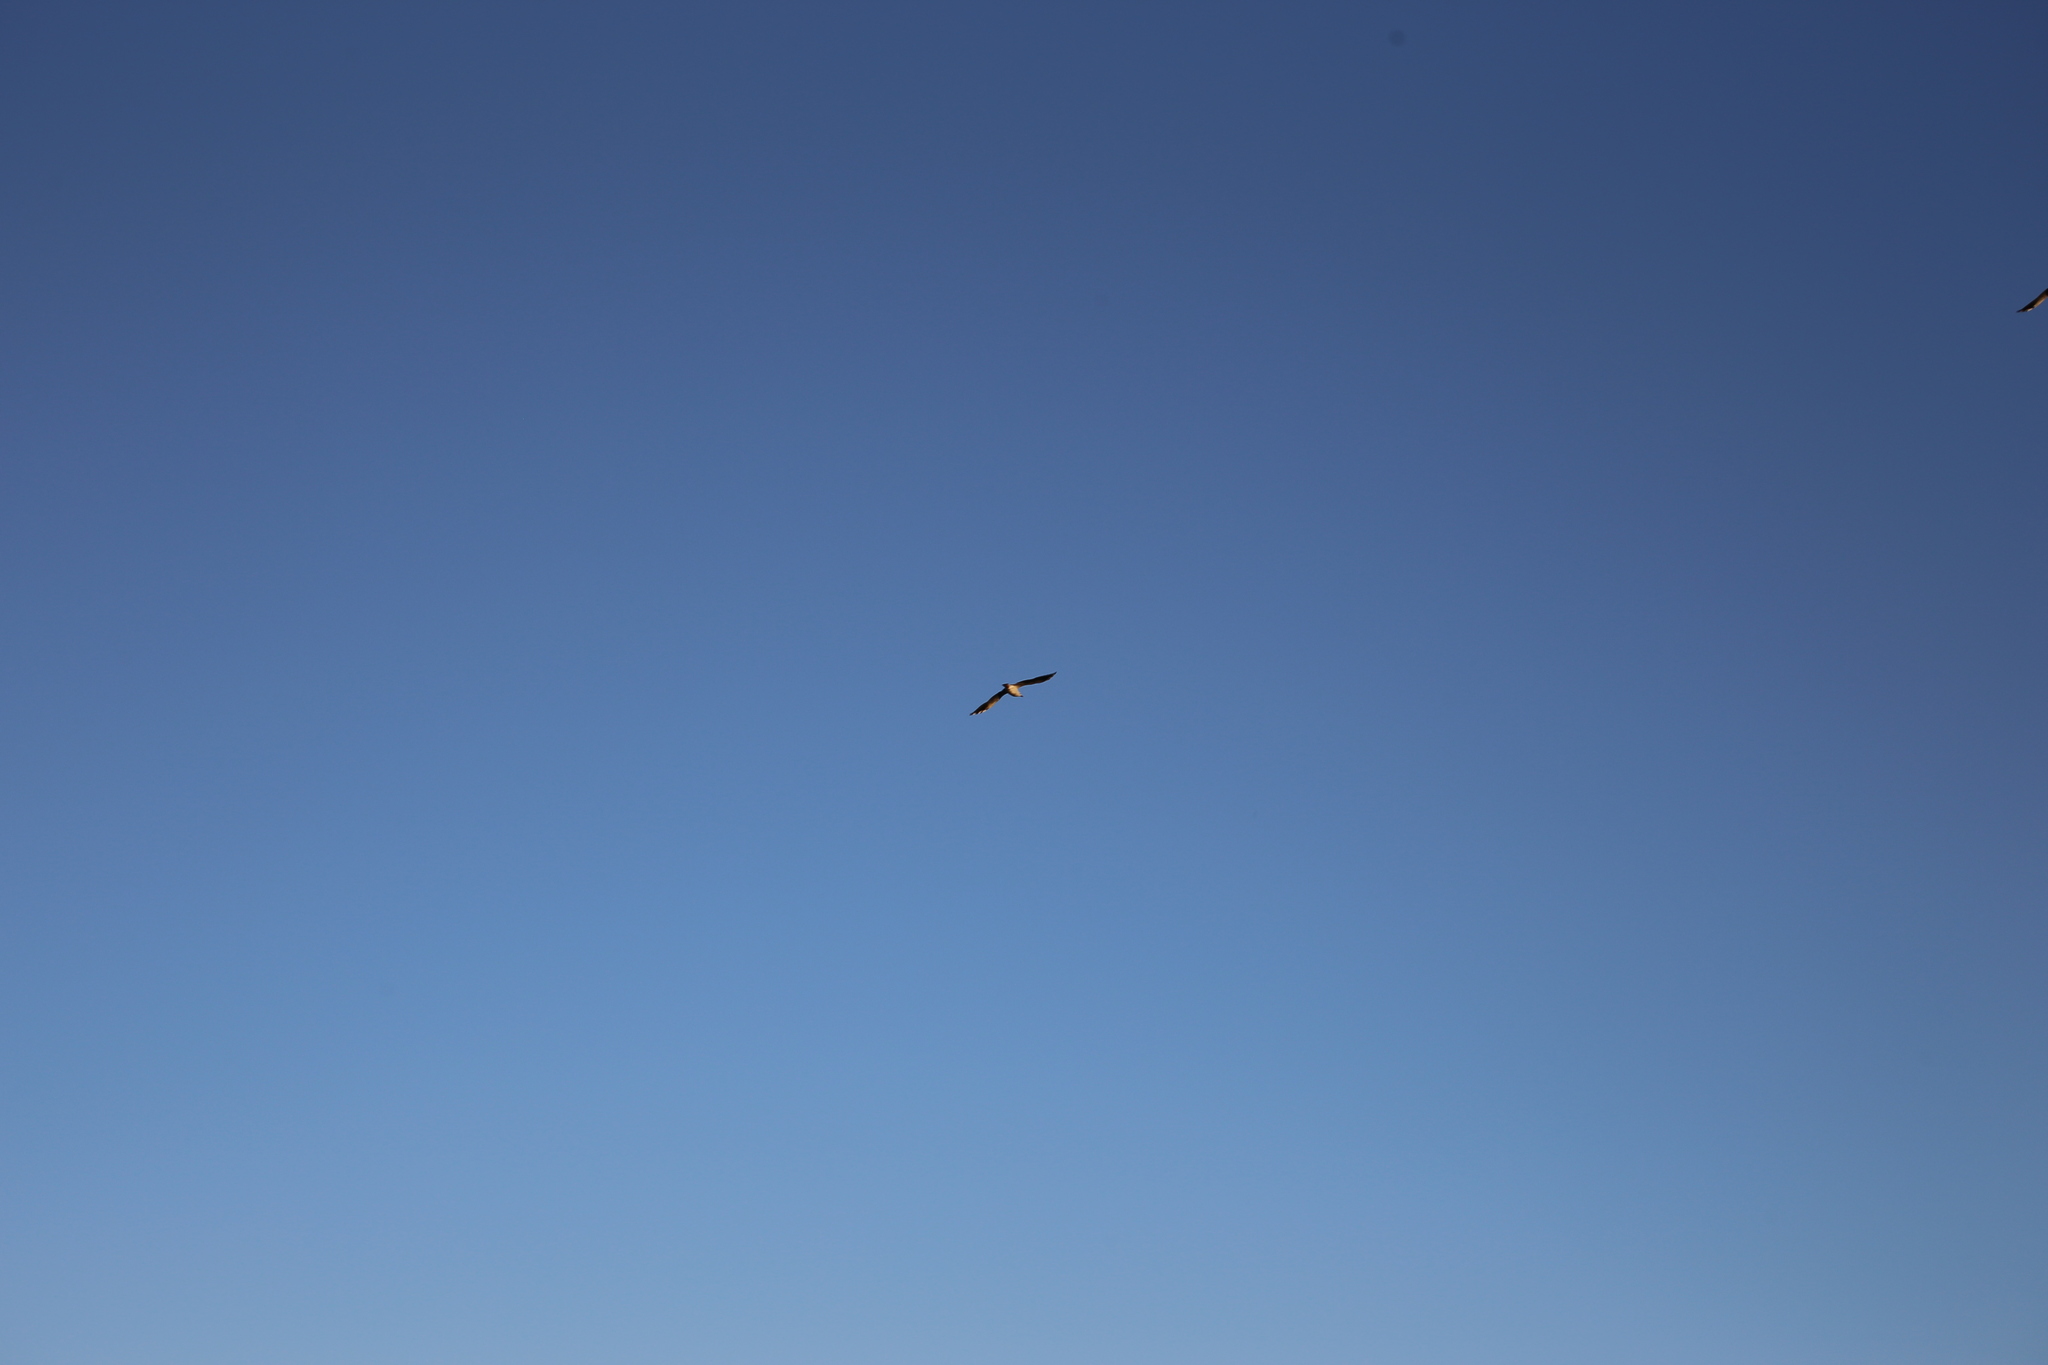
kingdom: Animalia
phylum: Chordata
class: Aves
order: Charadriiformes
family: Laridae
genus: Chroicocephalus
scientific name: Chroicocephalus novaehollandiae
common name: Silver gull
